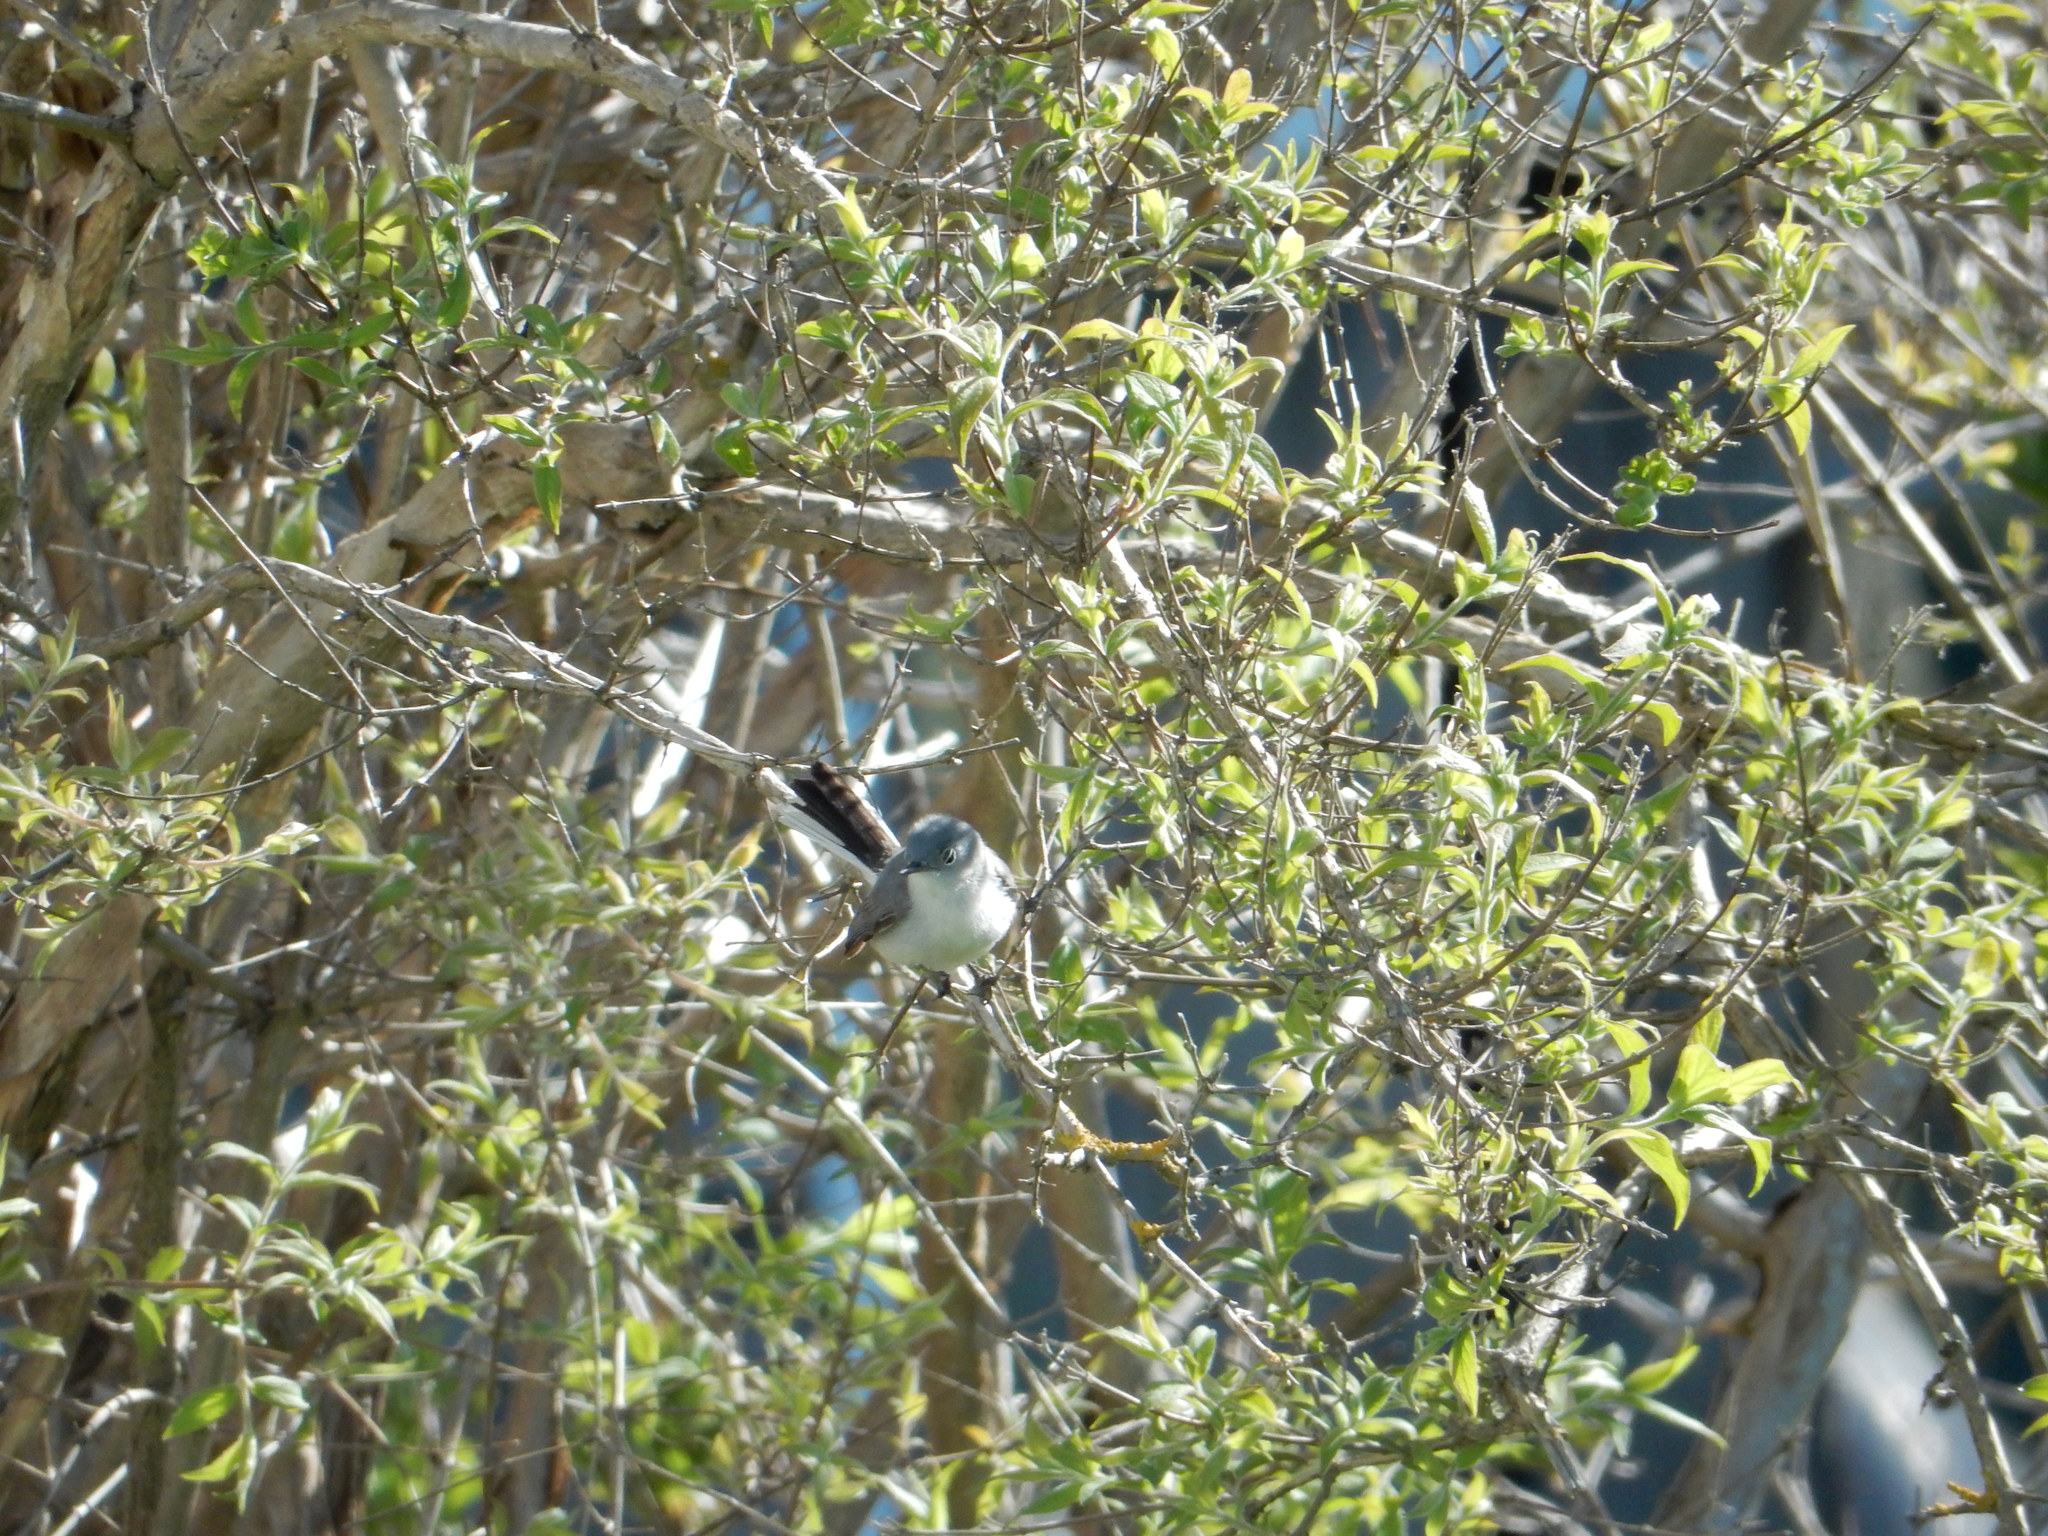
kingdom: Animalia
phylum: Chordata
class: Aves
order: Passeriformes
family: Polioptilidae
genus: Polioptila
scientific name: Polioptila caerulea
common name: Blue-gray gnatcatcher
